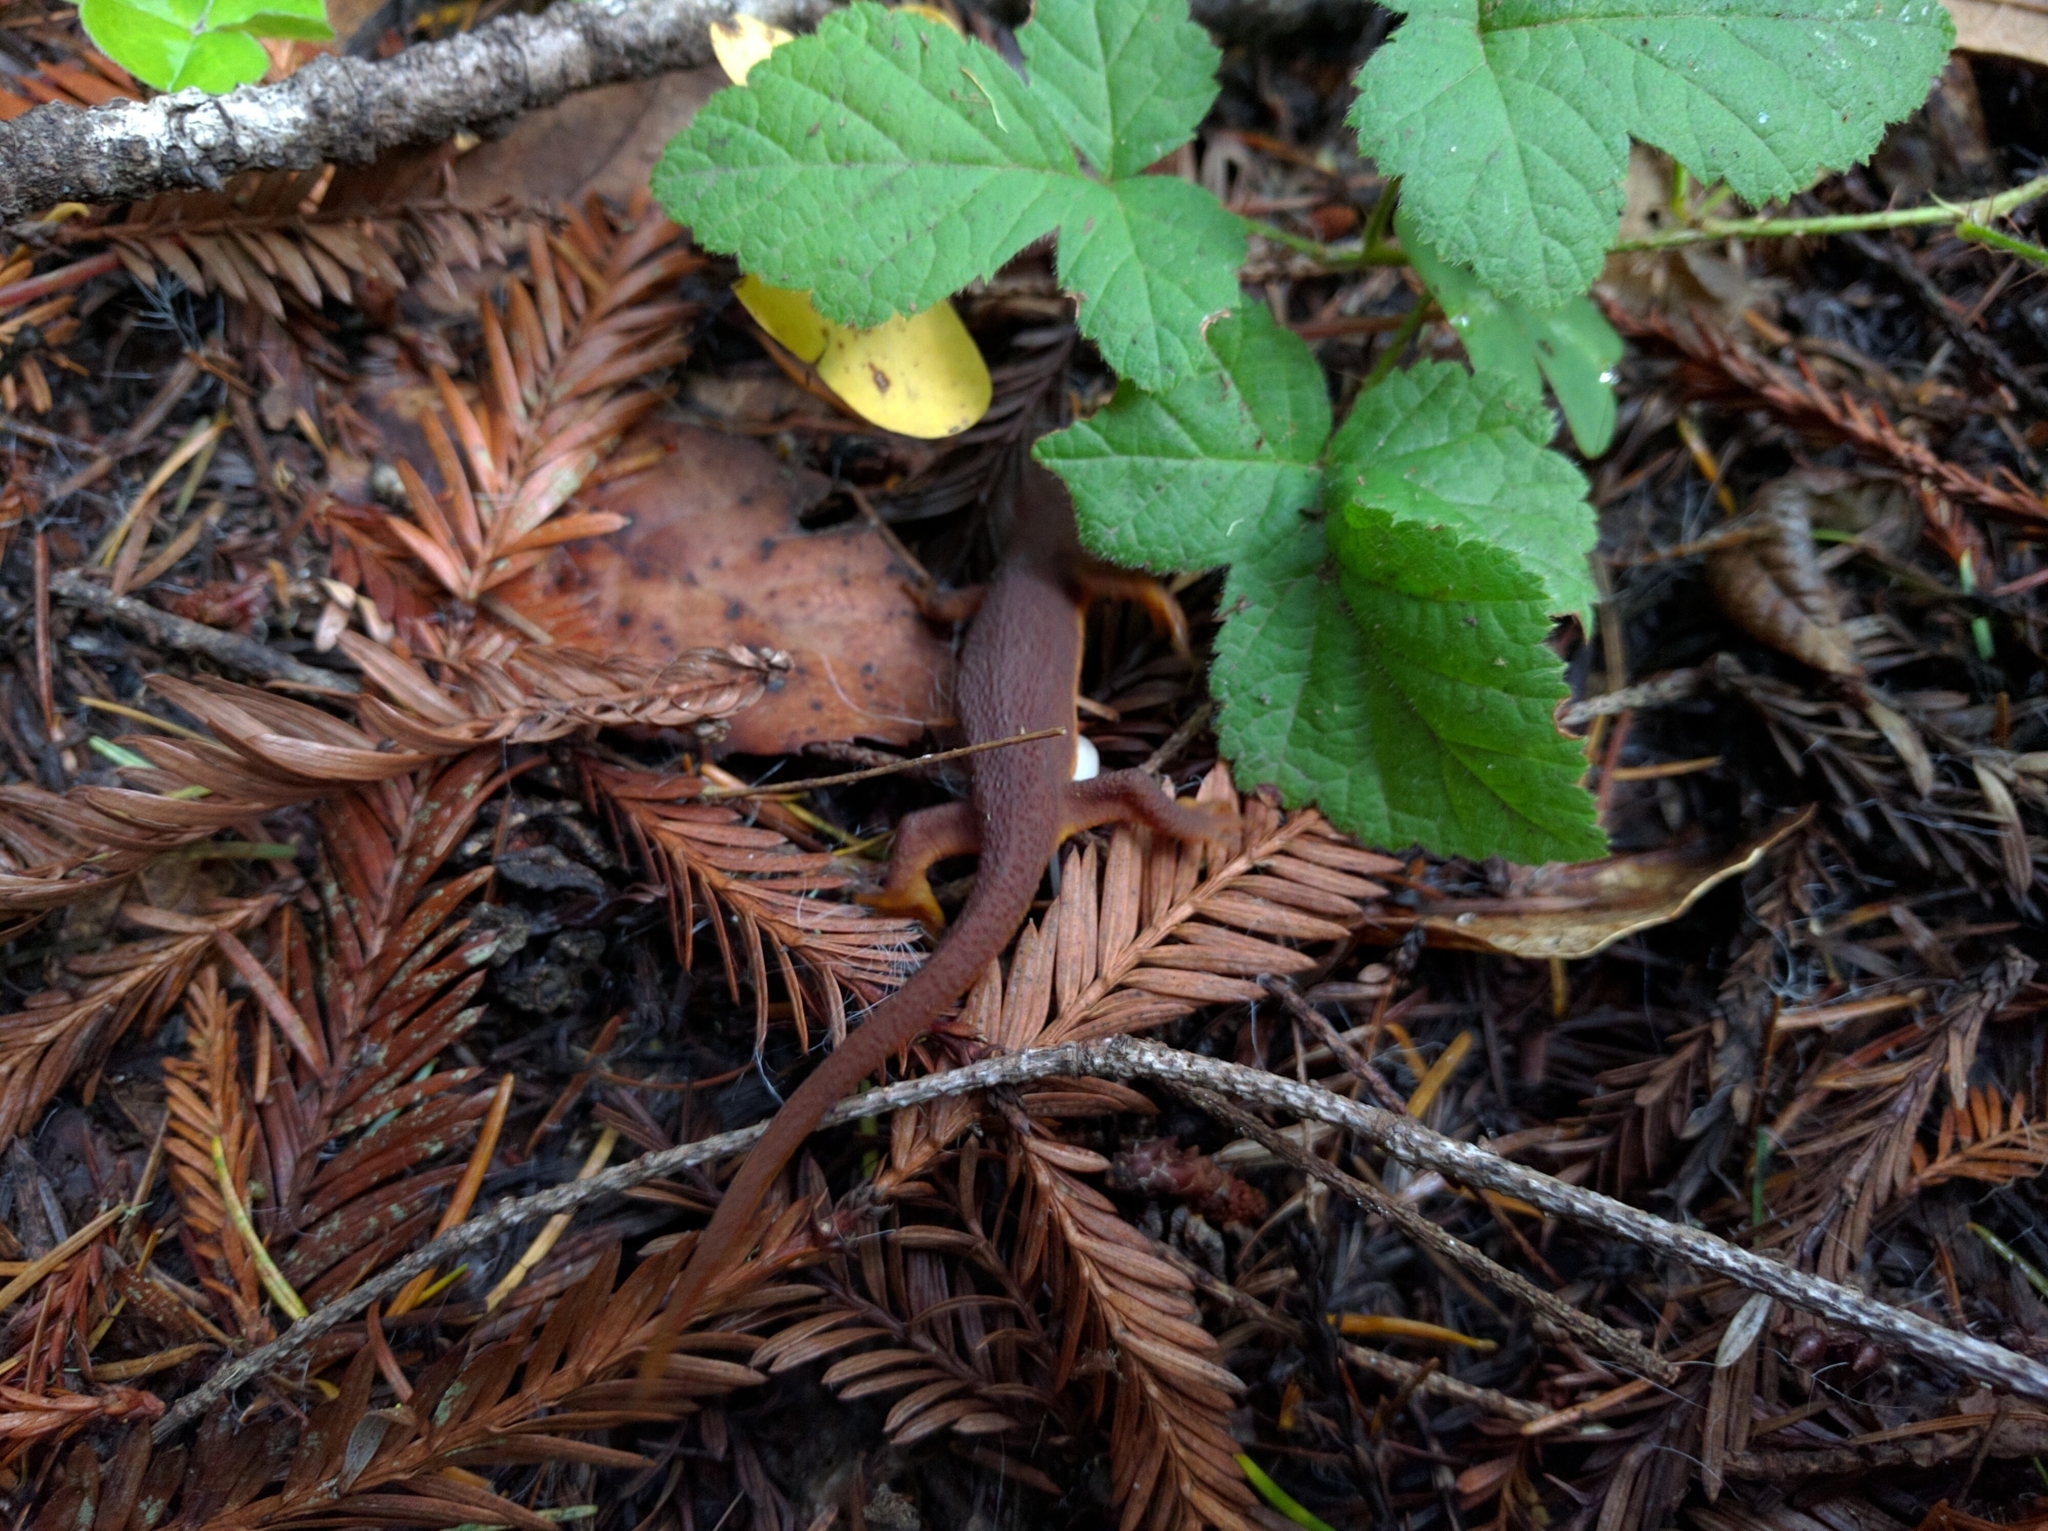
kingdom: Animalia
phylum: Chordata
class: Amphibia
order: Caudata
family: Salamandridae
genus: Taricha
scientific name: Taricha
